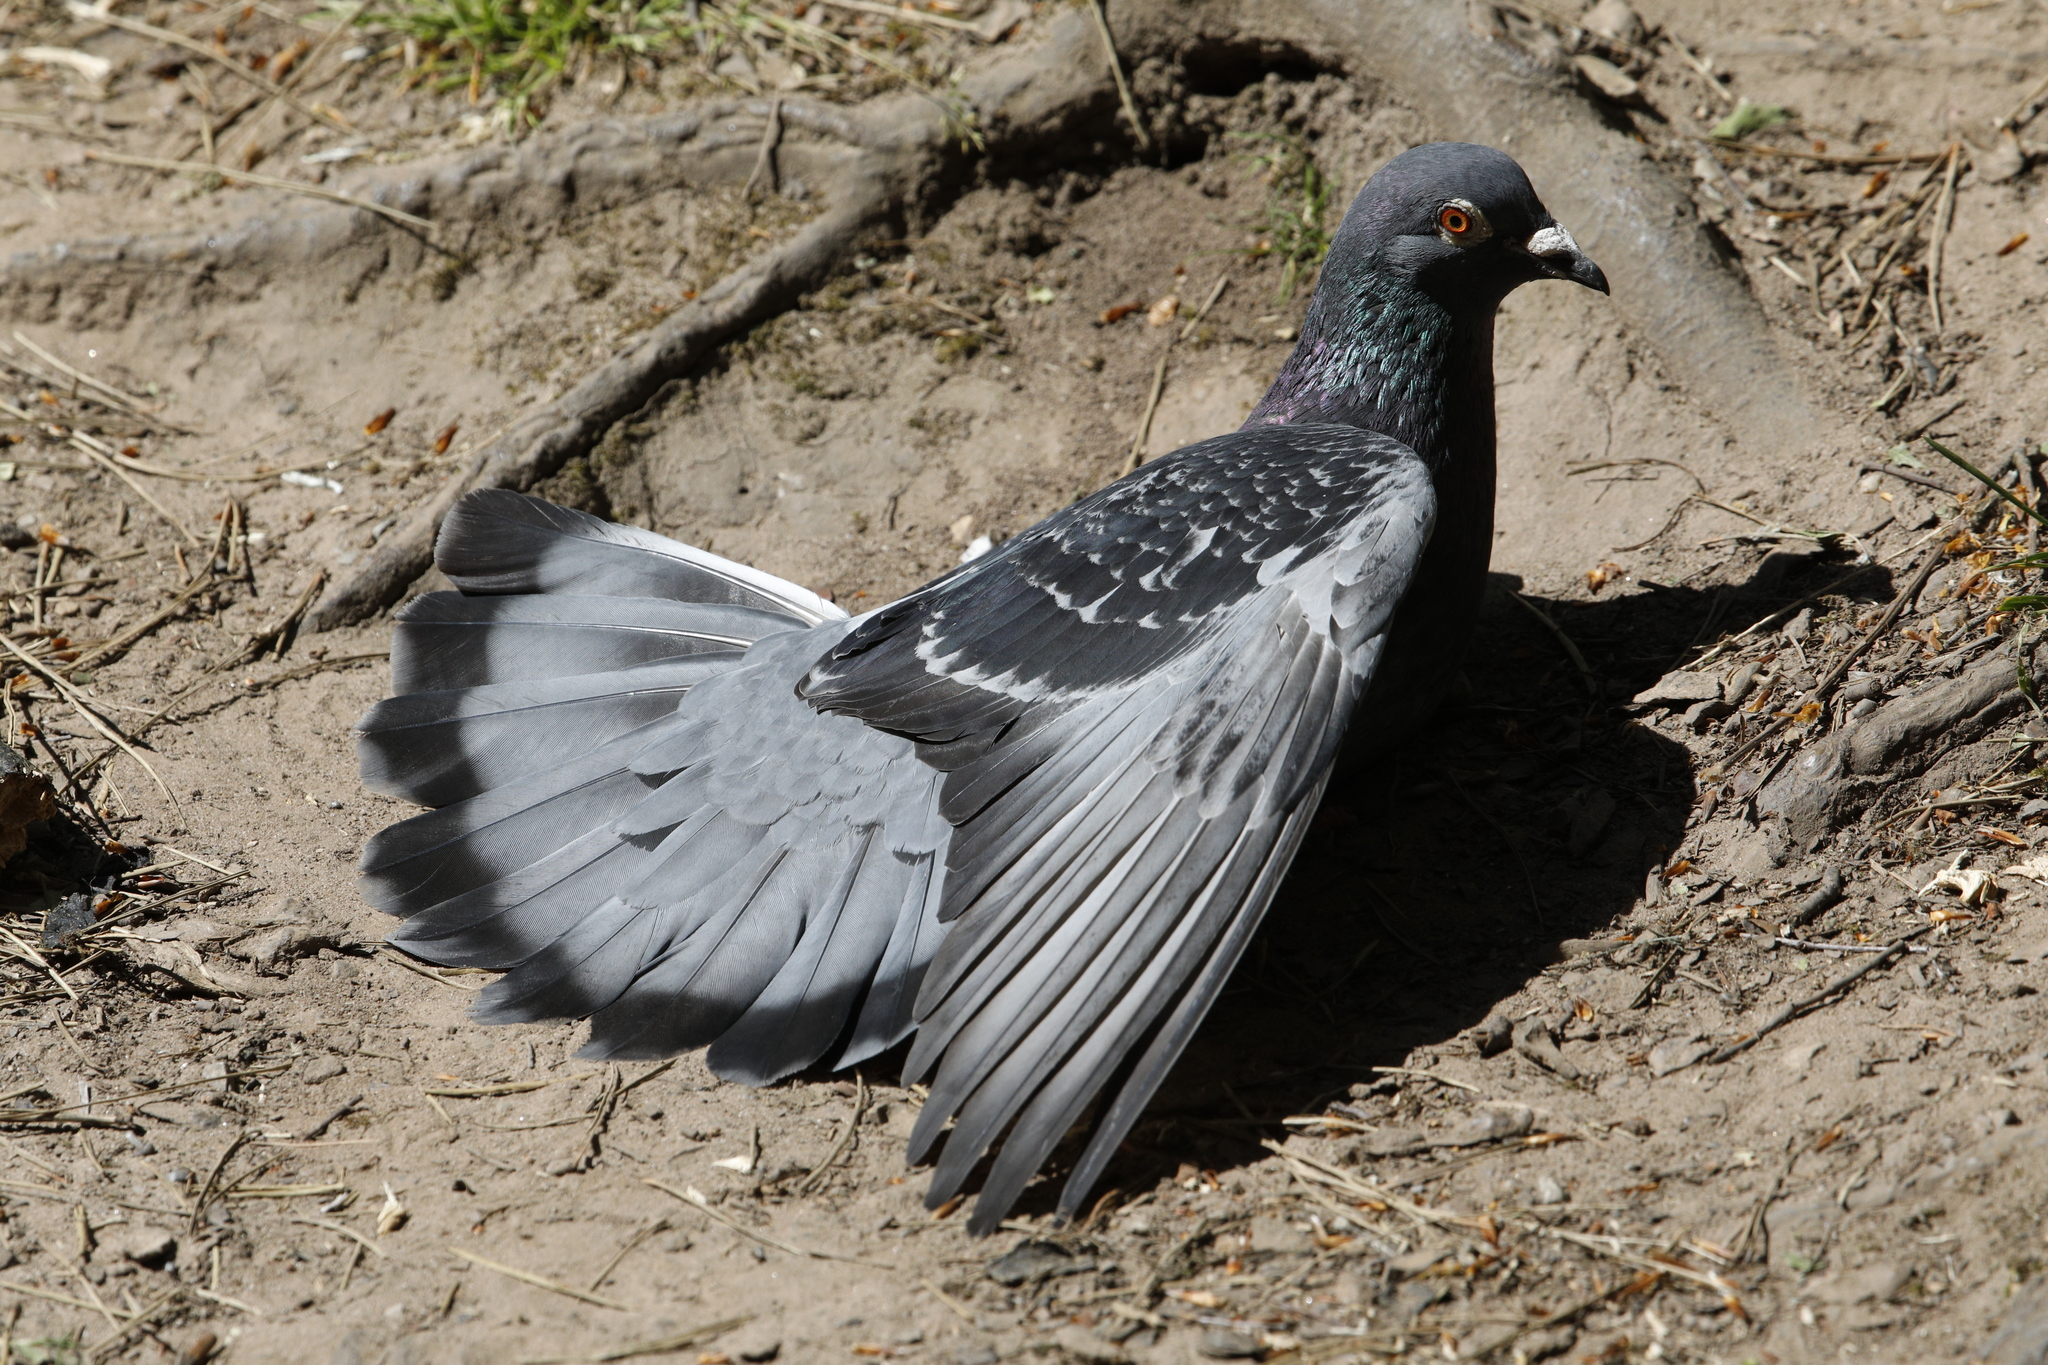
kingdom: Animalia
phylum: Chordata
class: Aves
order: Columbiformes
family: Columbidae
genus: Columba
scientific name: Columba livia
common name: Rock pigeon
